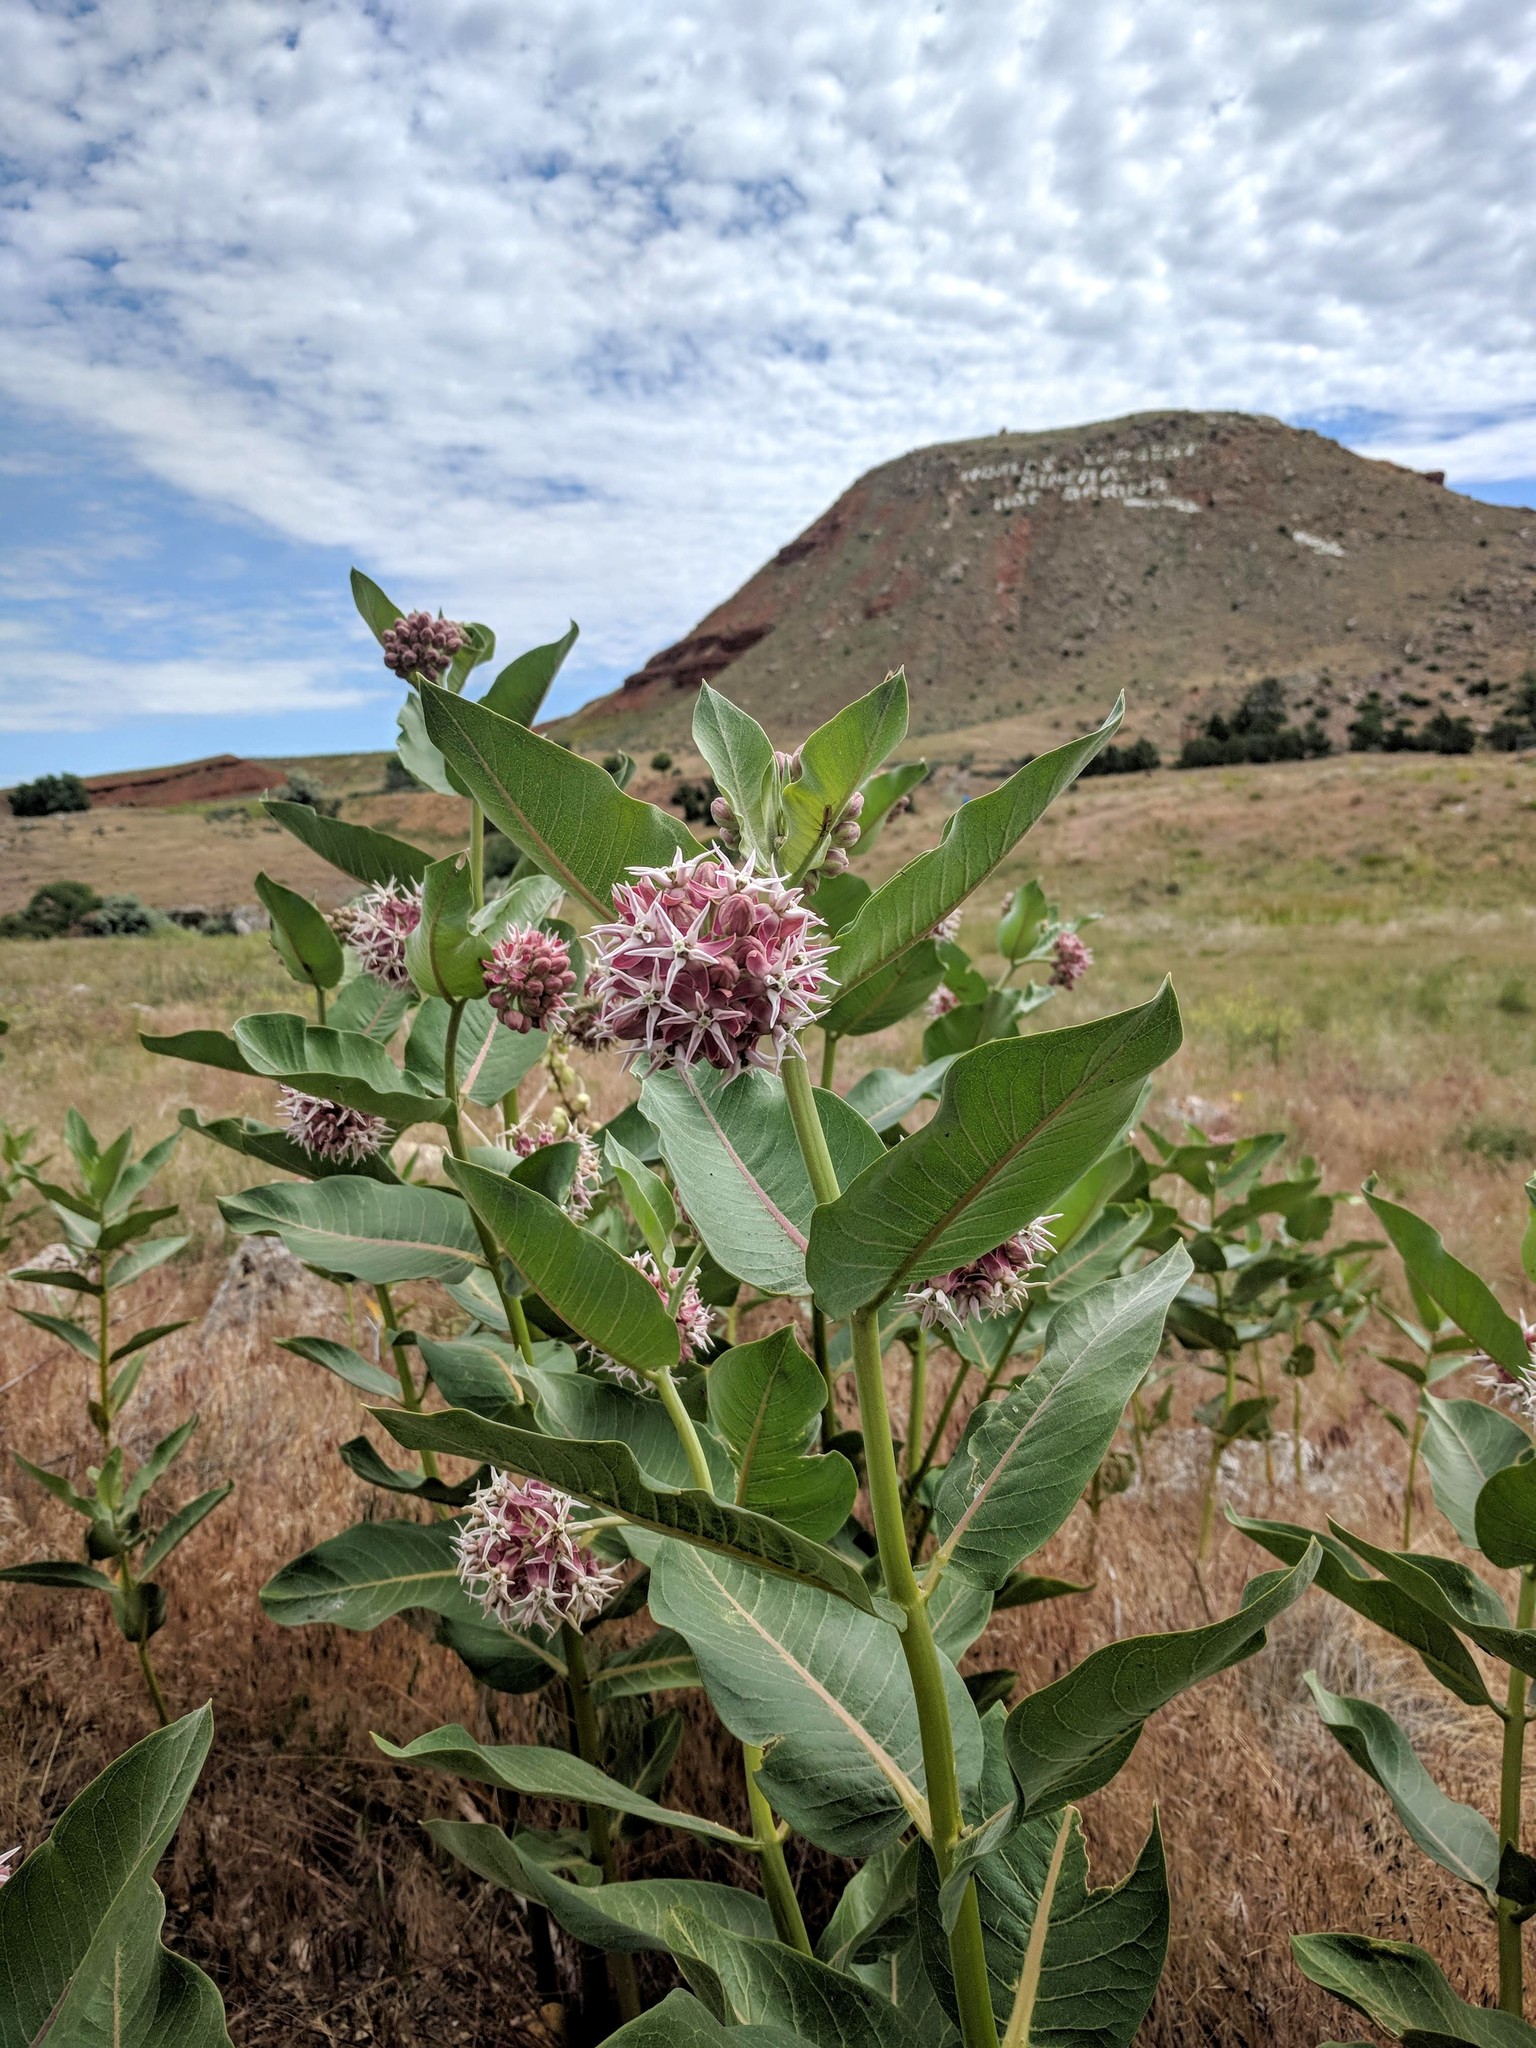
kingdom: Plantae
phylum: Tracheophyta
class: Magnoliopsida
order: Gentianales
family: Apocynaceae
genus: Asclepias
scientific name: Asclepias speciosa
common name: Showy milkweed
